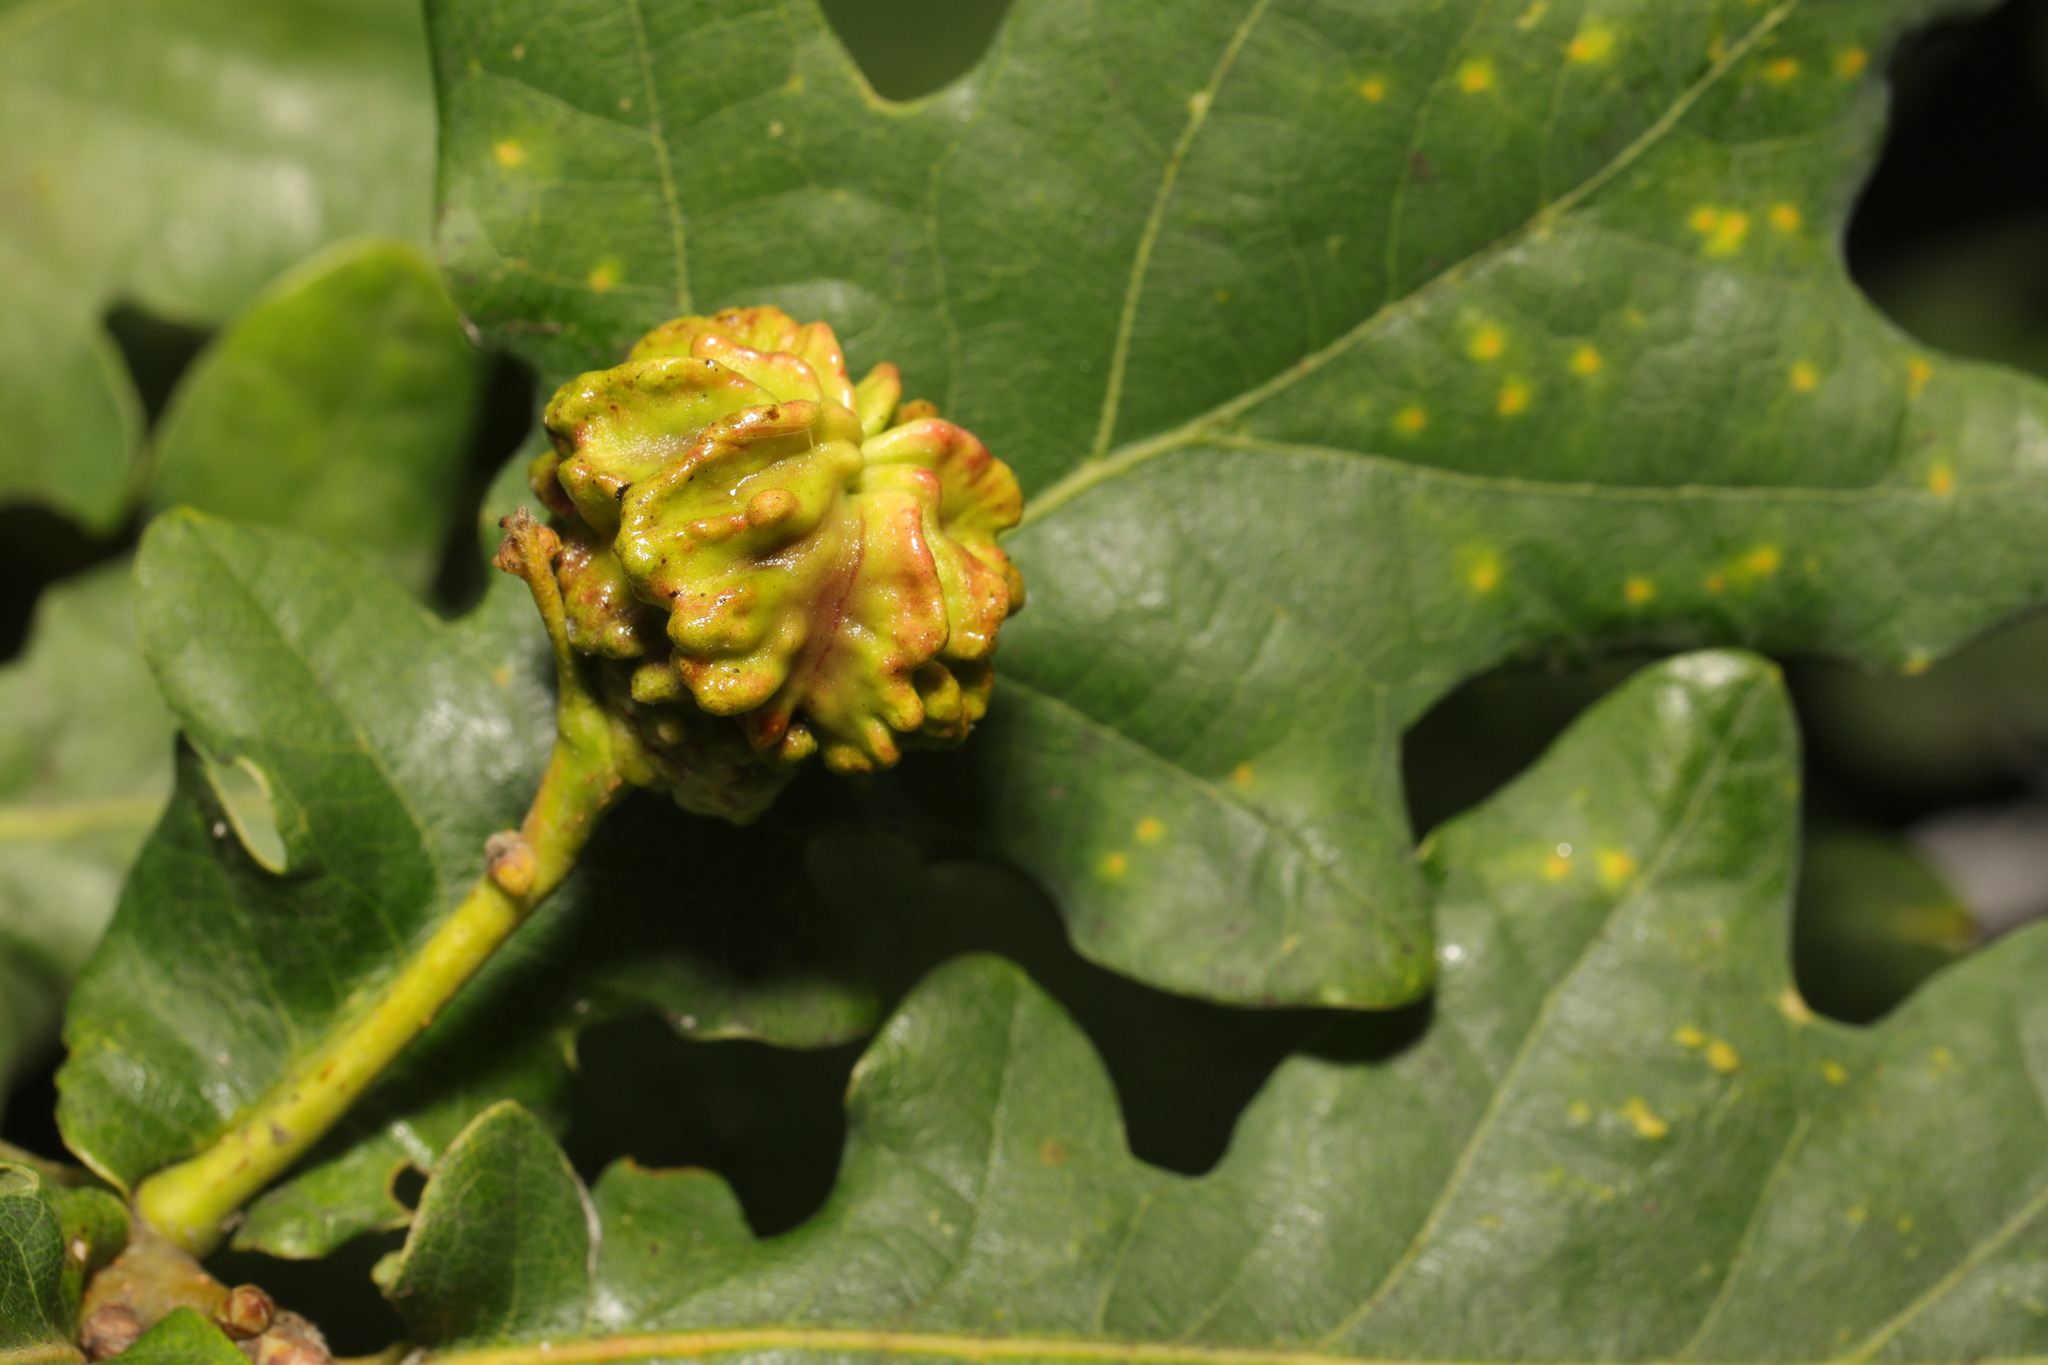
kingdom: Animalia
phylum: Arthropoda
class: Insecta
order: Hymenoptera
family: Cynipidae
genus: Andricus
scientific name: Andricus quercuscalicis
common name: Knopper gall
